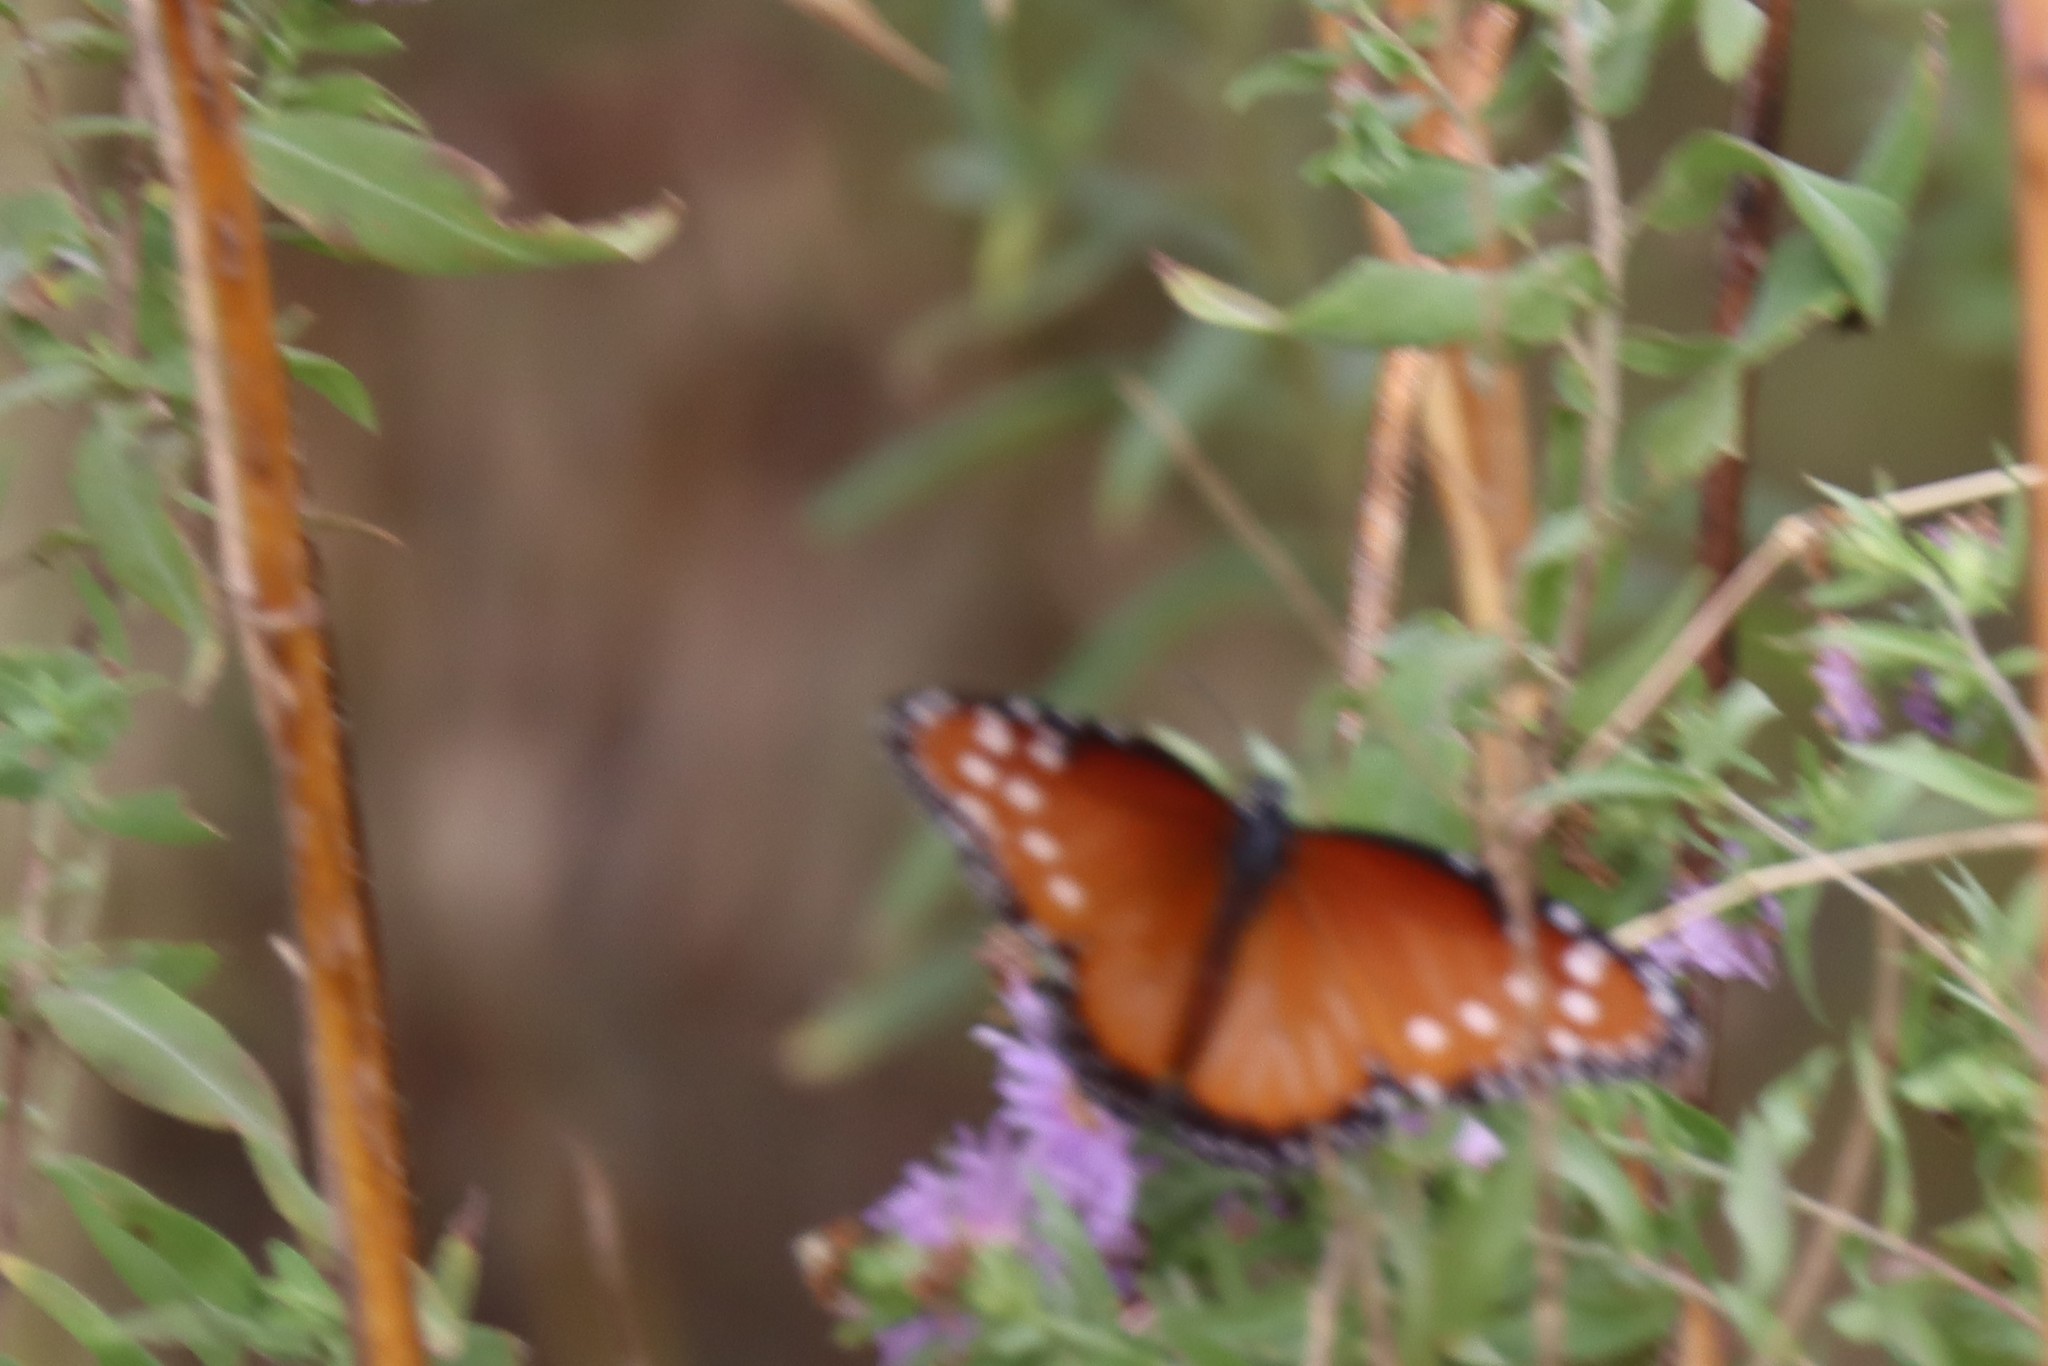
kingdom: Animalia
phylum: Arthropoda
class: Insecta
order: Lepidoptera
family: Nymphalidae
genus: Danaus
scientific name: Danaus gilippus
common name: Queen
